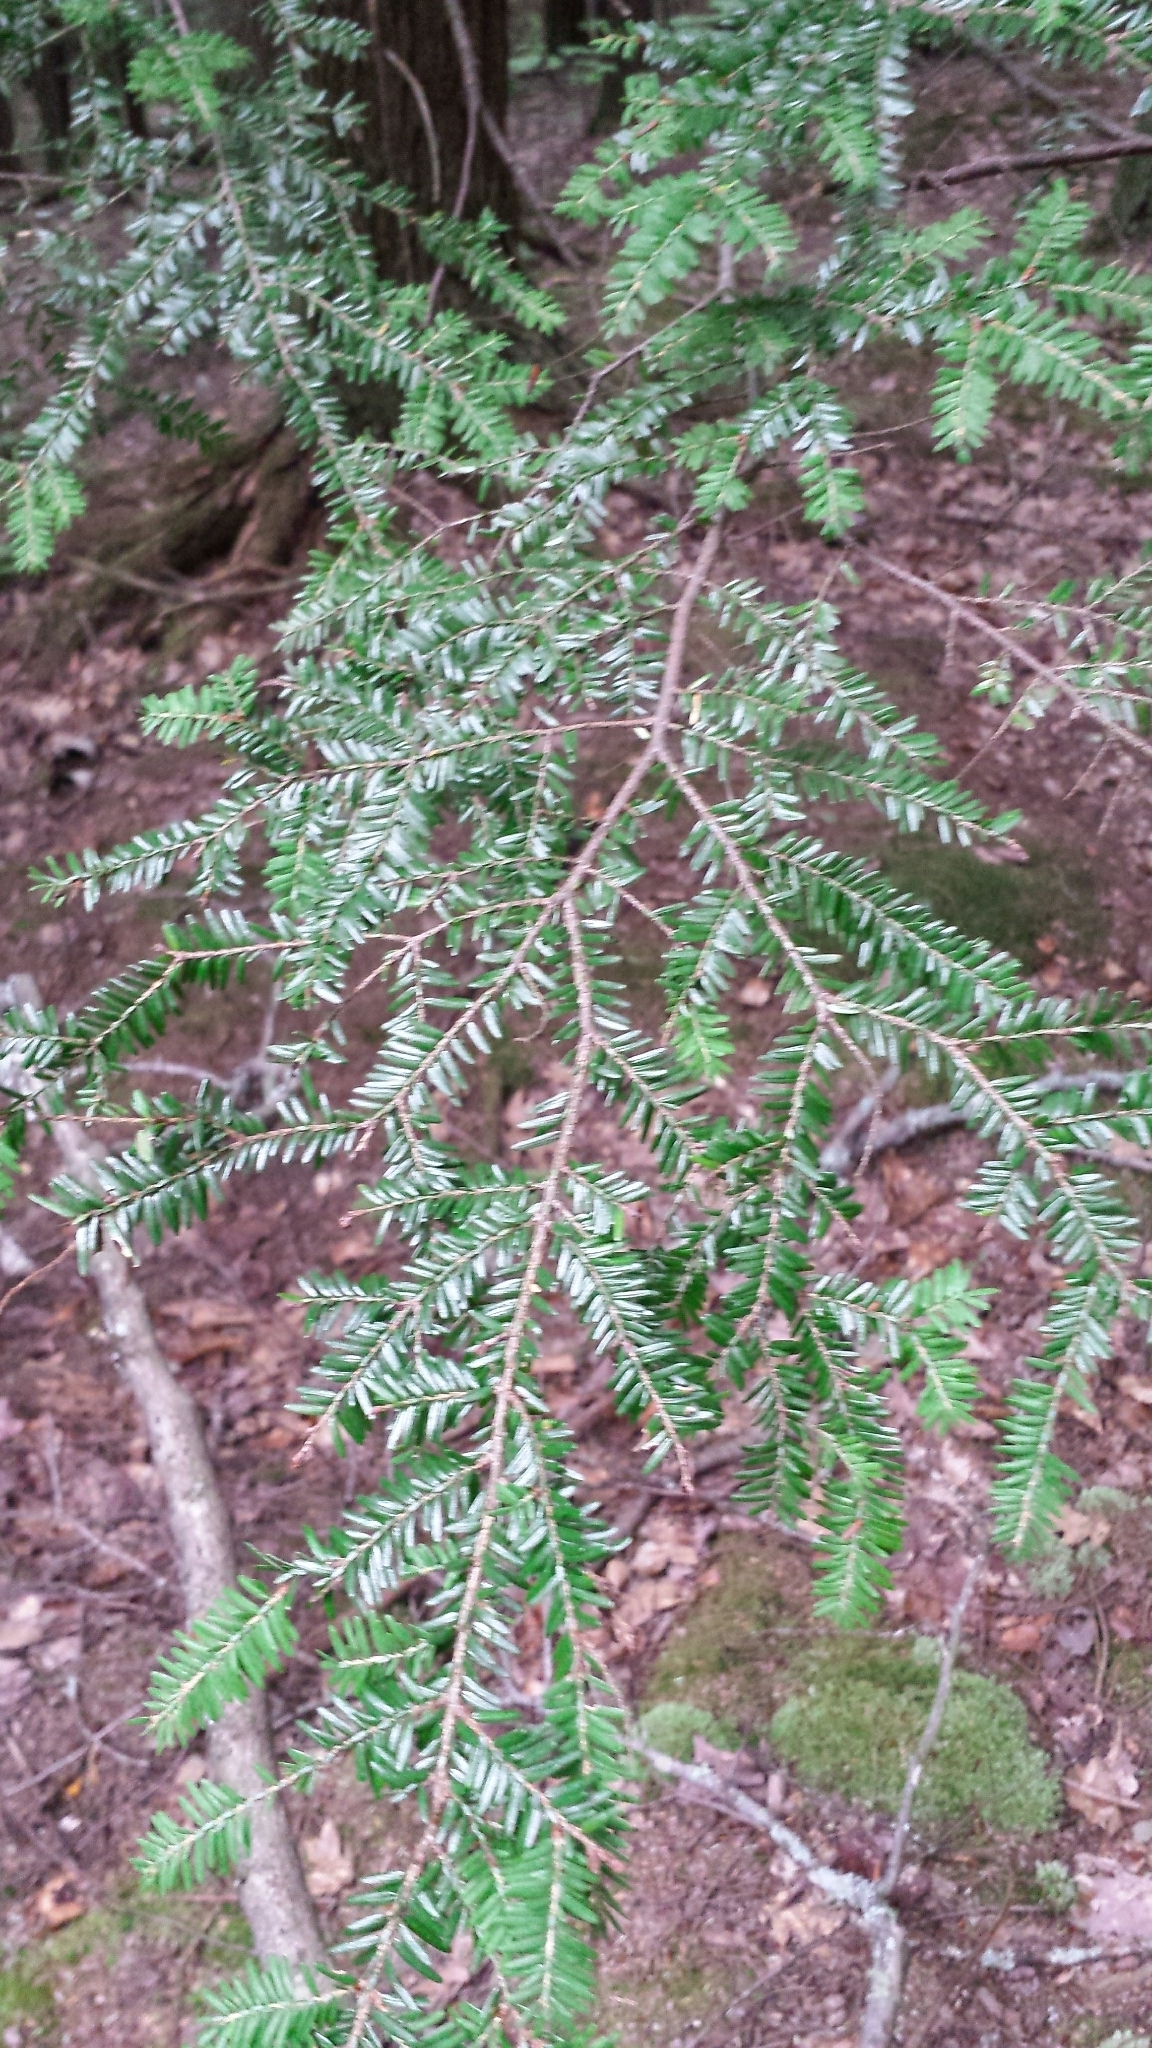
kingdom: Plantae
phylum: Tracheophyta
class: Pinopsida
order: Pinales
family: Pinaceae
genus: Tsuga
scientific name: Tsuga canadensis
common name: Eastern hemlock
